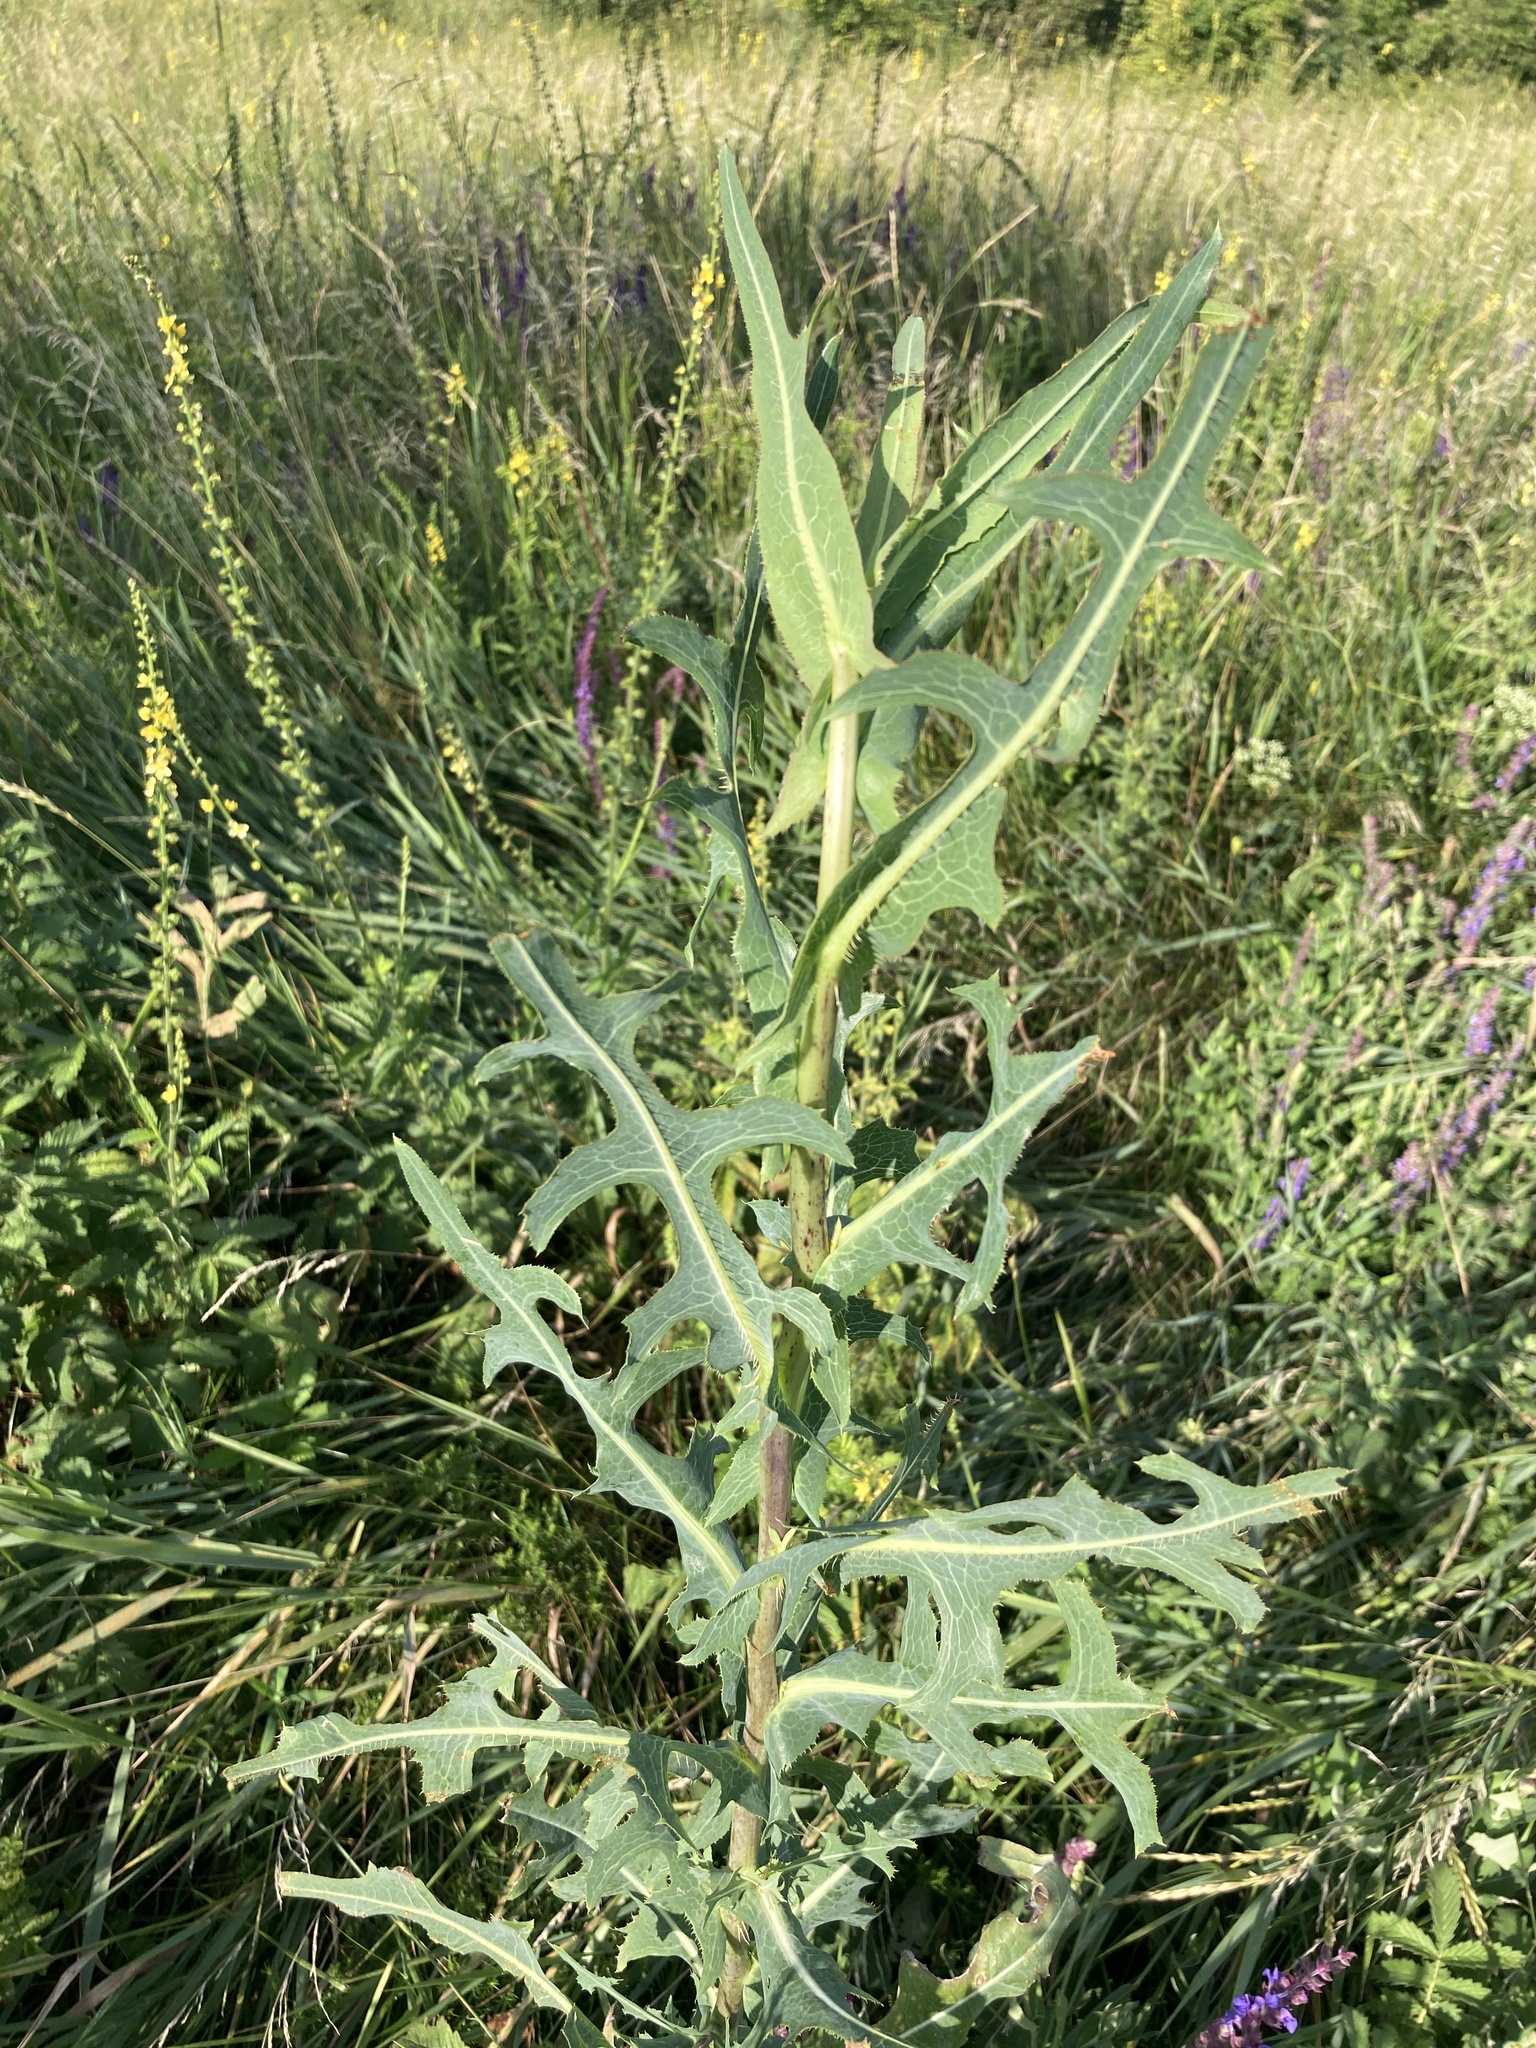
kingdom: Plantae
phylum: Tracheophyta
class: Magnoliopsida
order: Asterales
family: Asteraceae
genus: Lactuca
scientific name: Lactuca serriola
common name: Prickly lettuce
